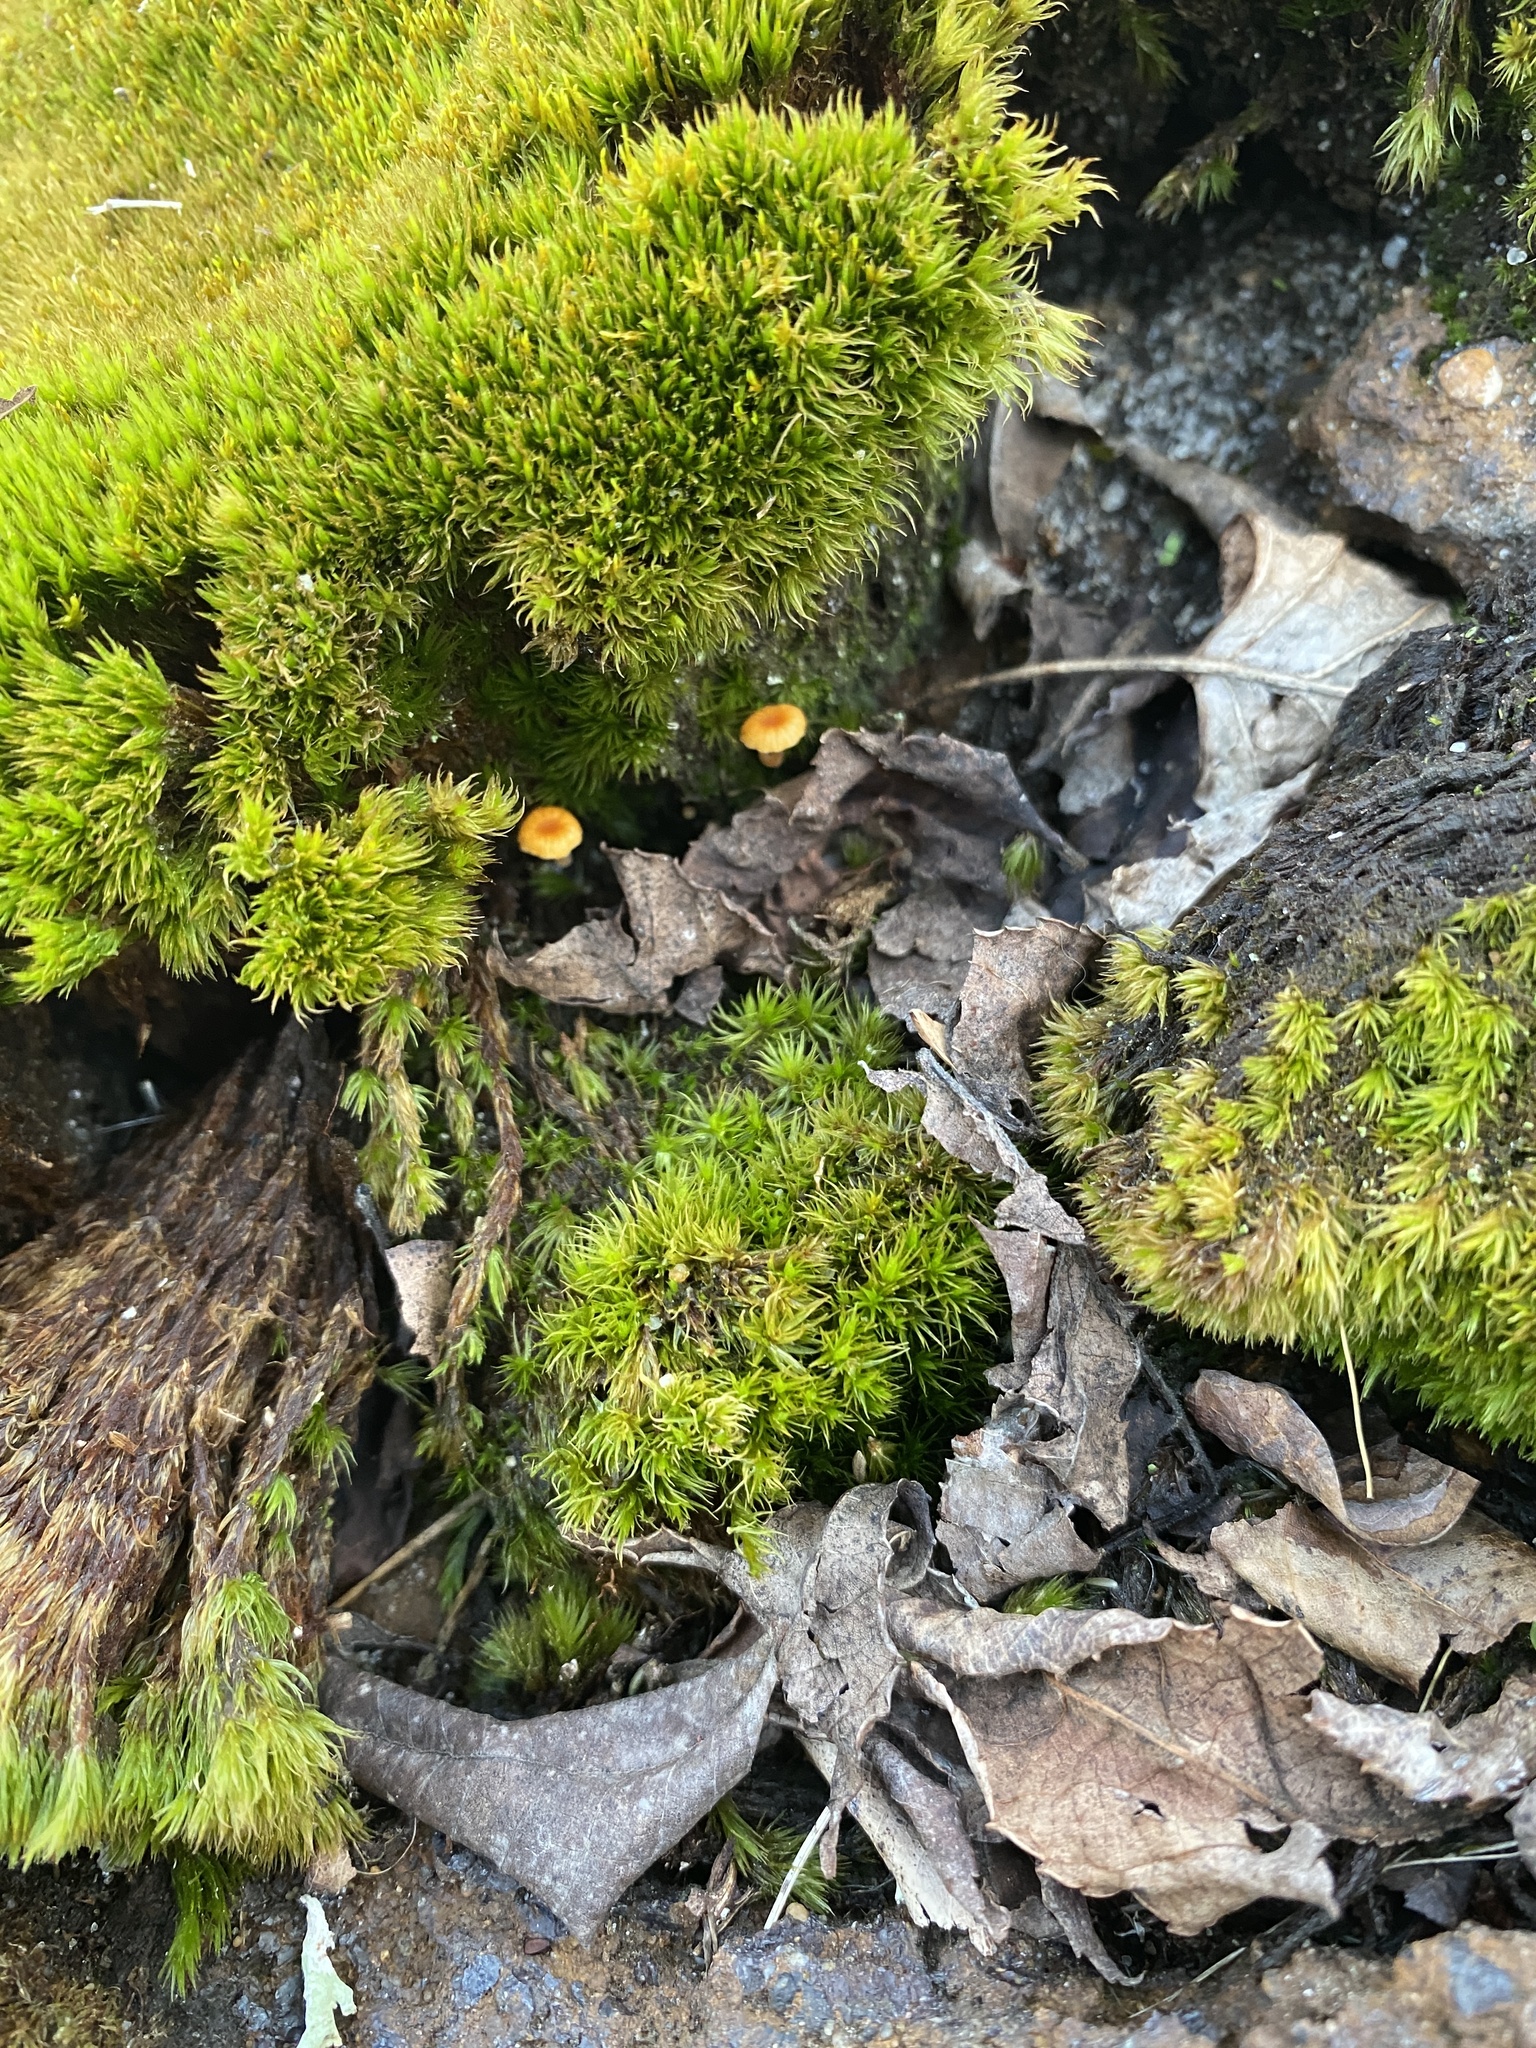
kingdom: Fungi
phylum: Basidiomycota
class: Agaricomycetes
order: Hymenochaetales
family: Rickenellaceae
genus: Rickenella
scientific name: Rickenella fibula
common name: Orange mosscap
